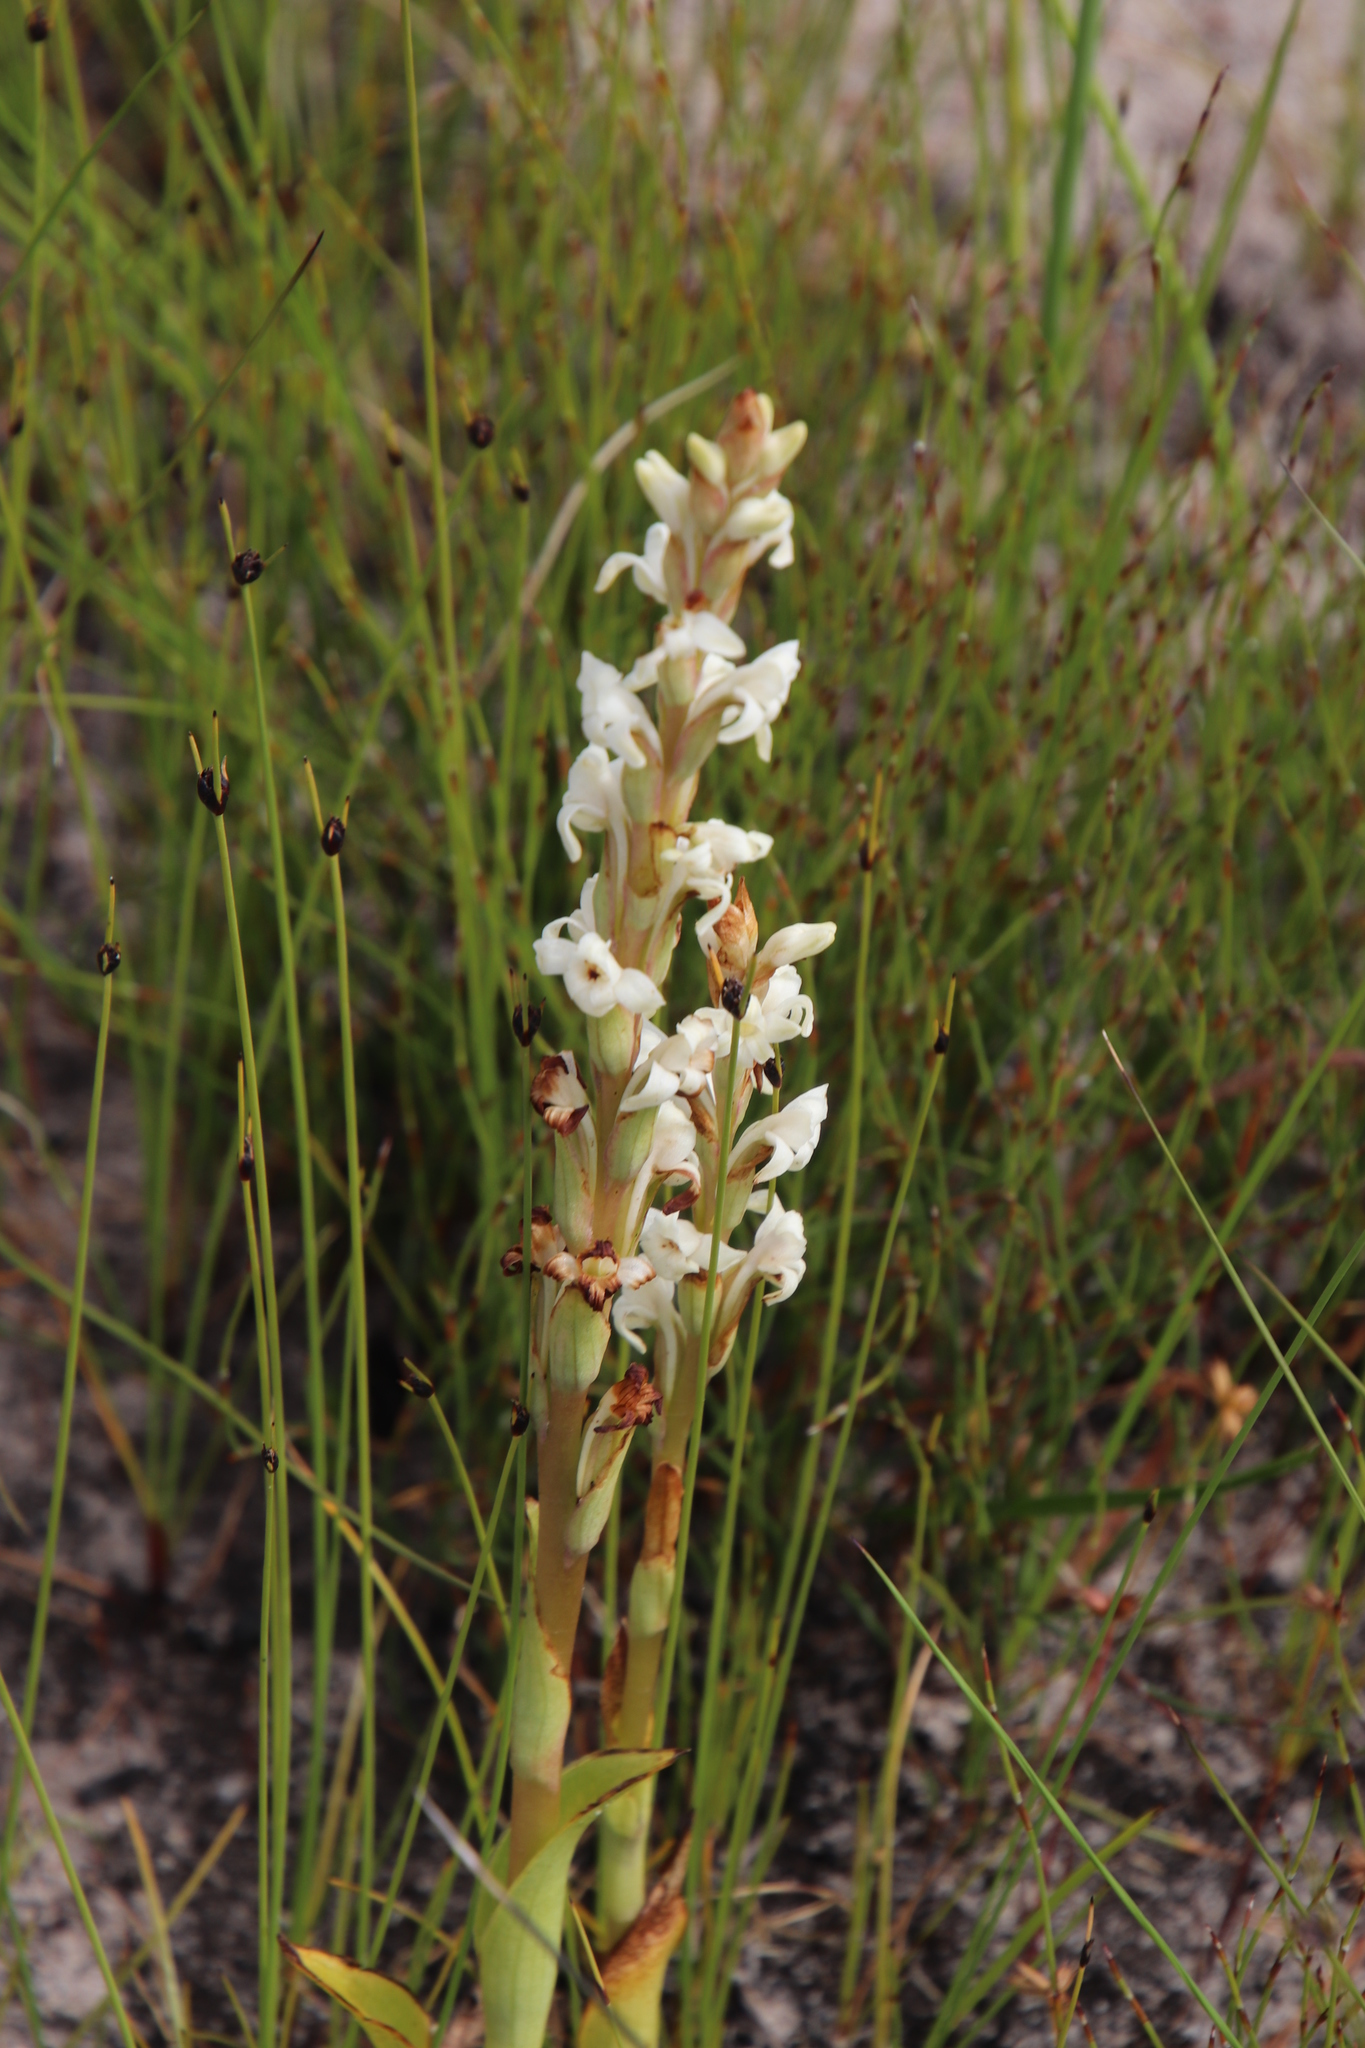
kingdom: Plantae
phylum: Tracheophyta
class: Liliopsida
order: Asparagales
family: Orchidaceae
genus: Satyrium
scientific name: Satyrium stenopetalum
